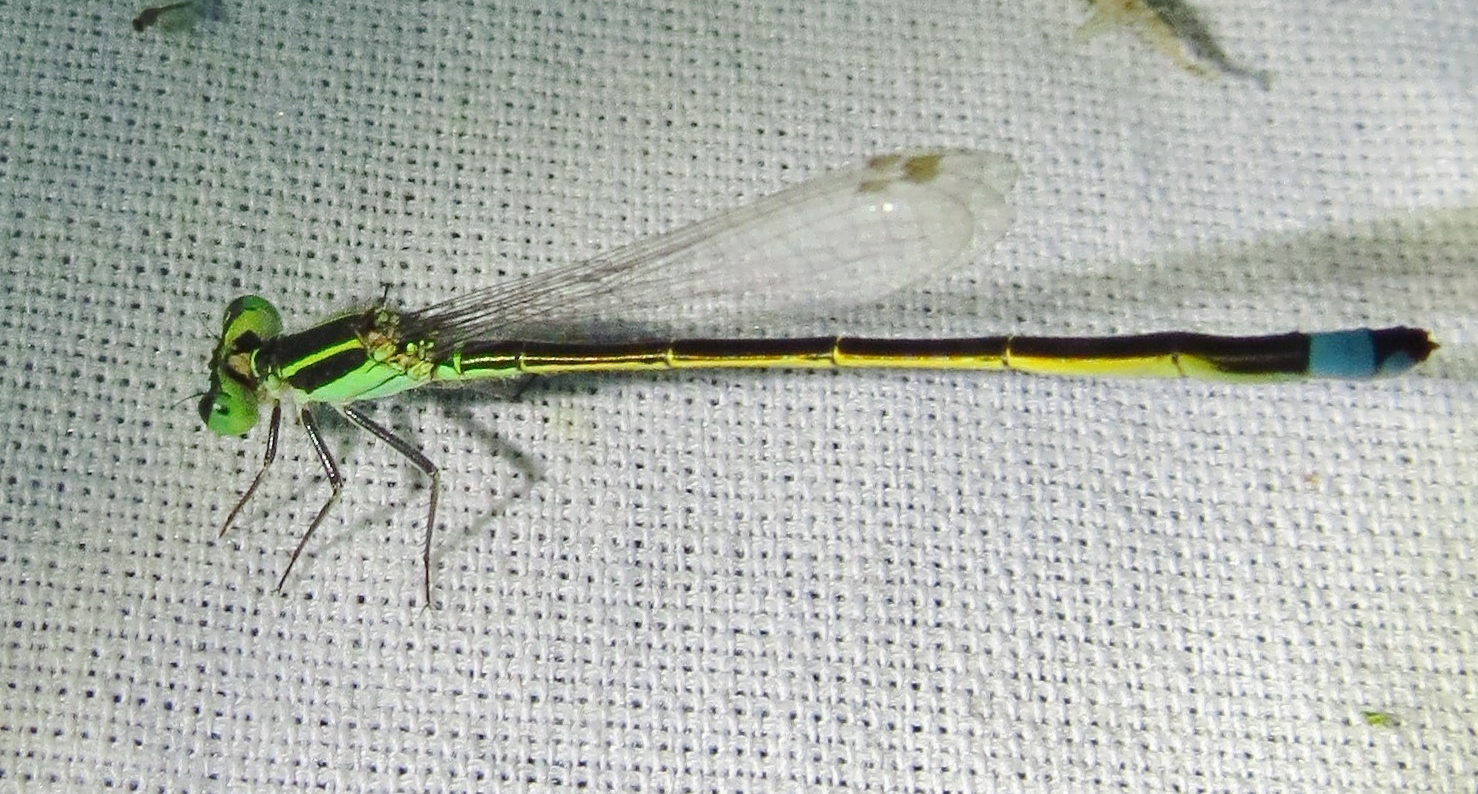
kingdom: Animalia
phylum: Arthropoda
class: Insecta
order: Odonata
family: Coenagrionidae
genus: Ischnura
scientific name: Ischnura ramburii
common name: Rambur's forktail
